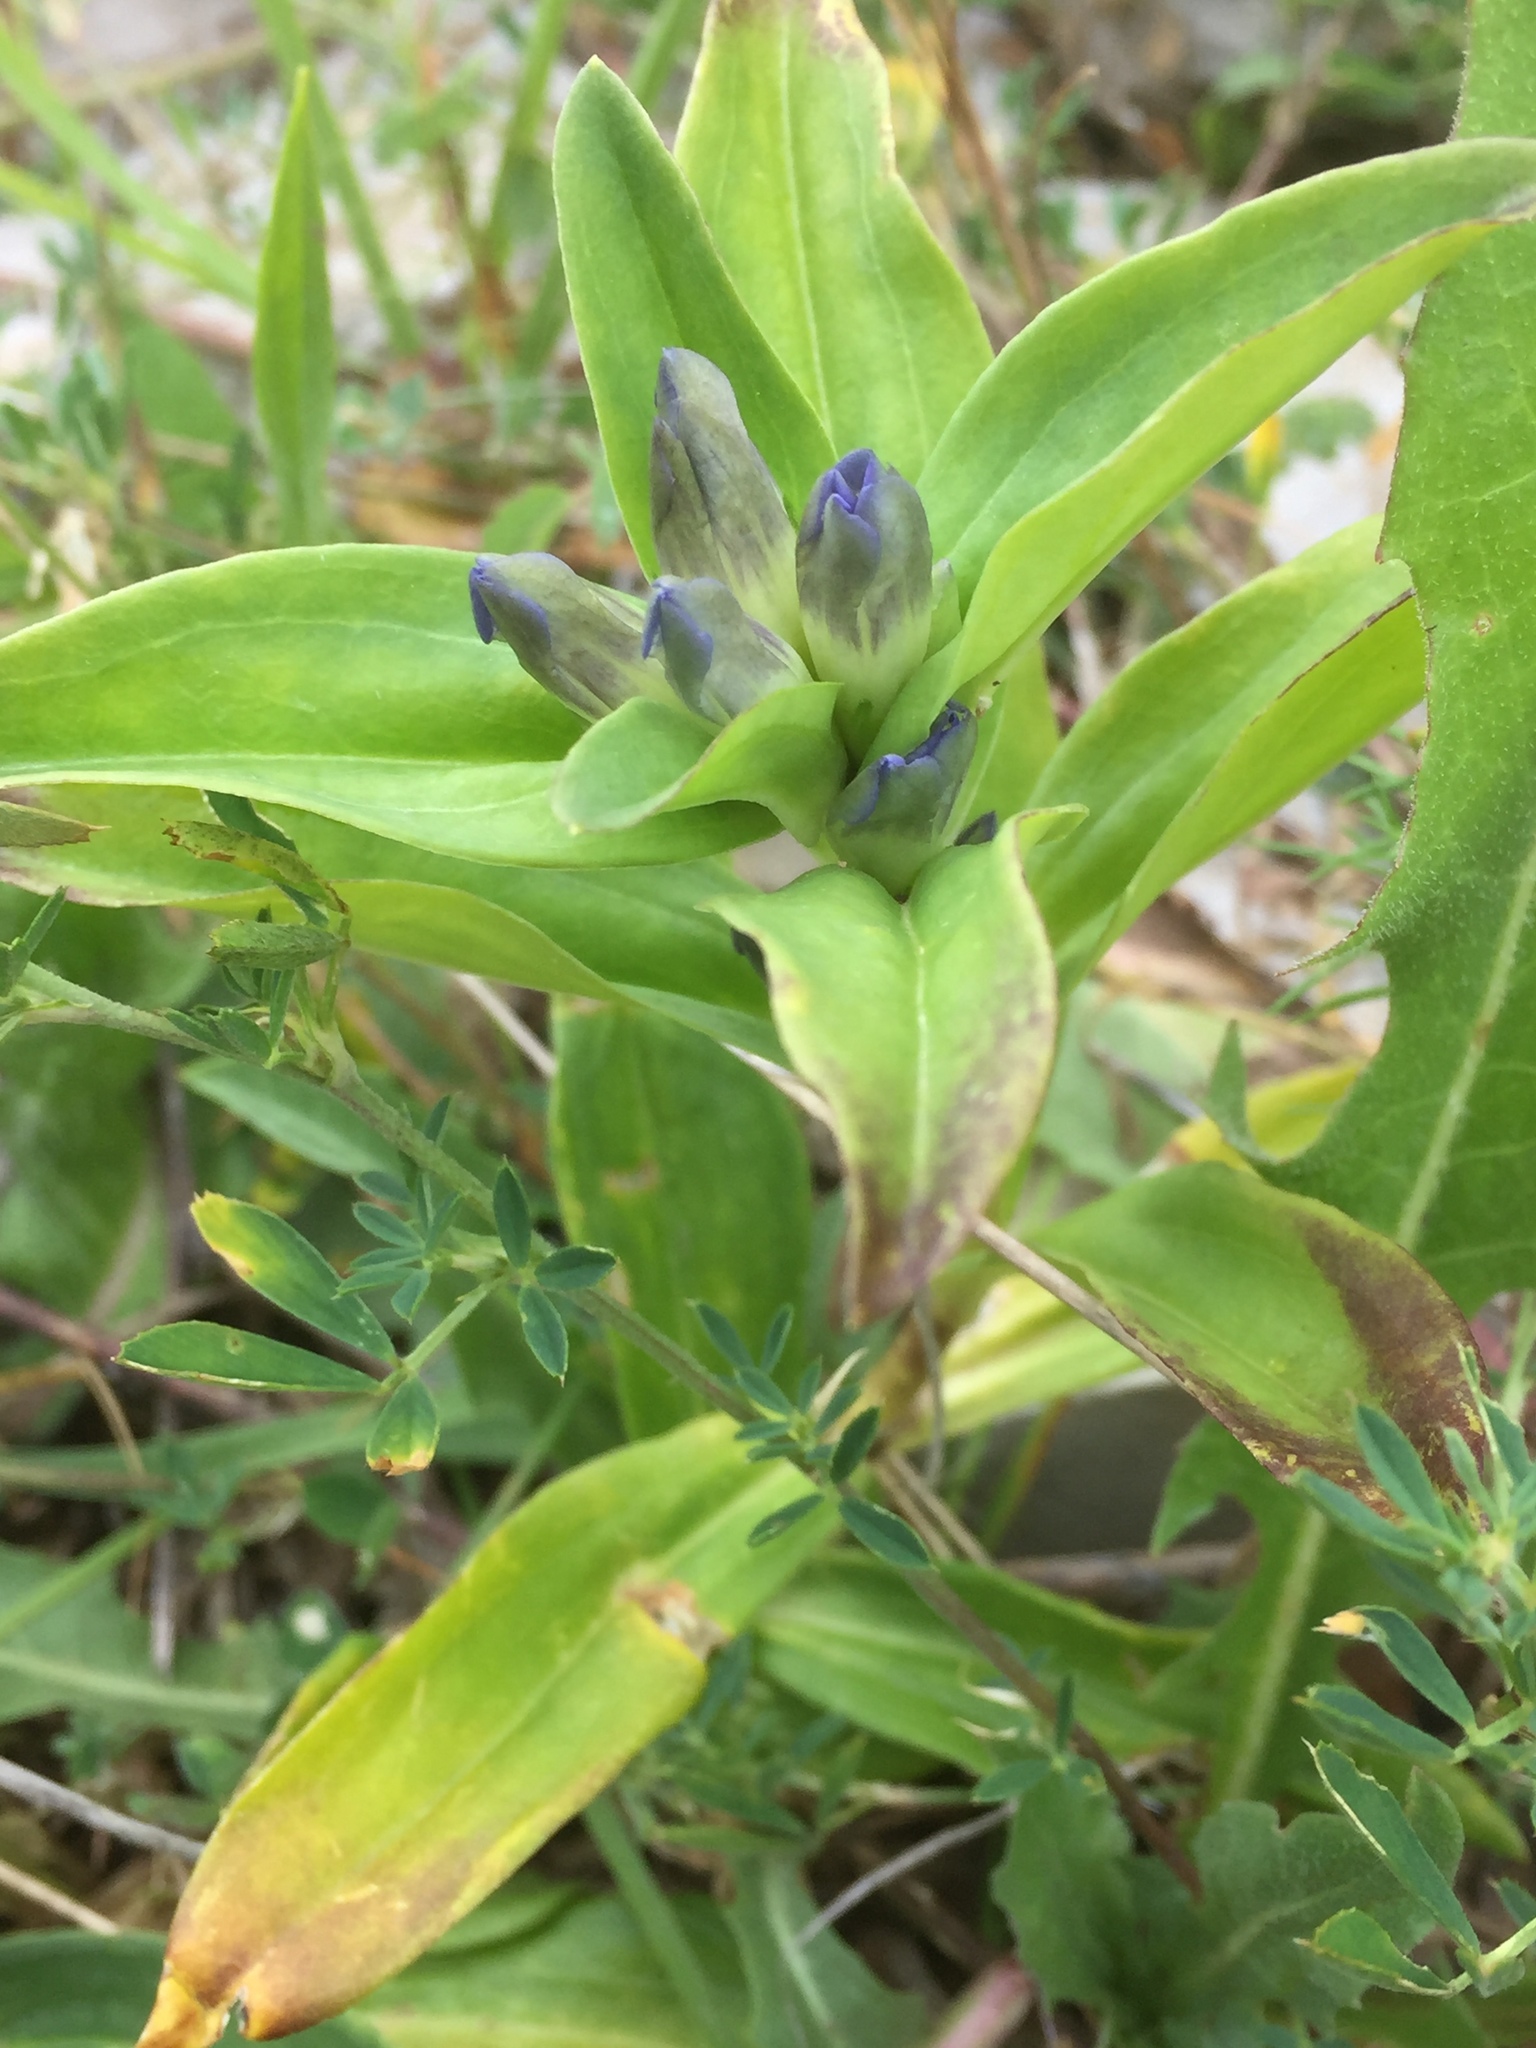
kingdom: Plantae
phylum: Tracheophyta
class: Magnoliopsida
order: Gentianales
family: Gentianaceae
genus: Gentiana
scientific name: Gentiana cruciata
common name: Cross gentian
